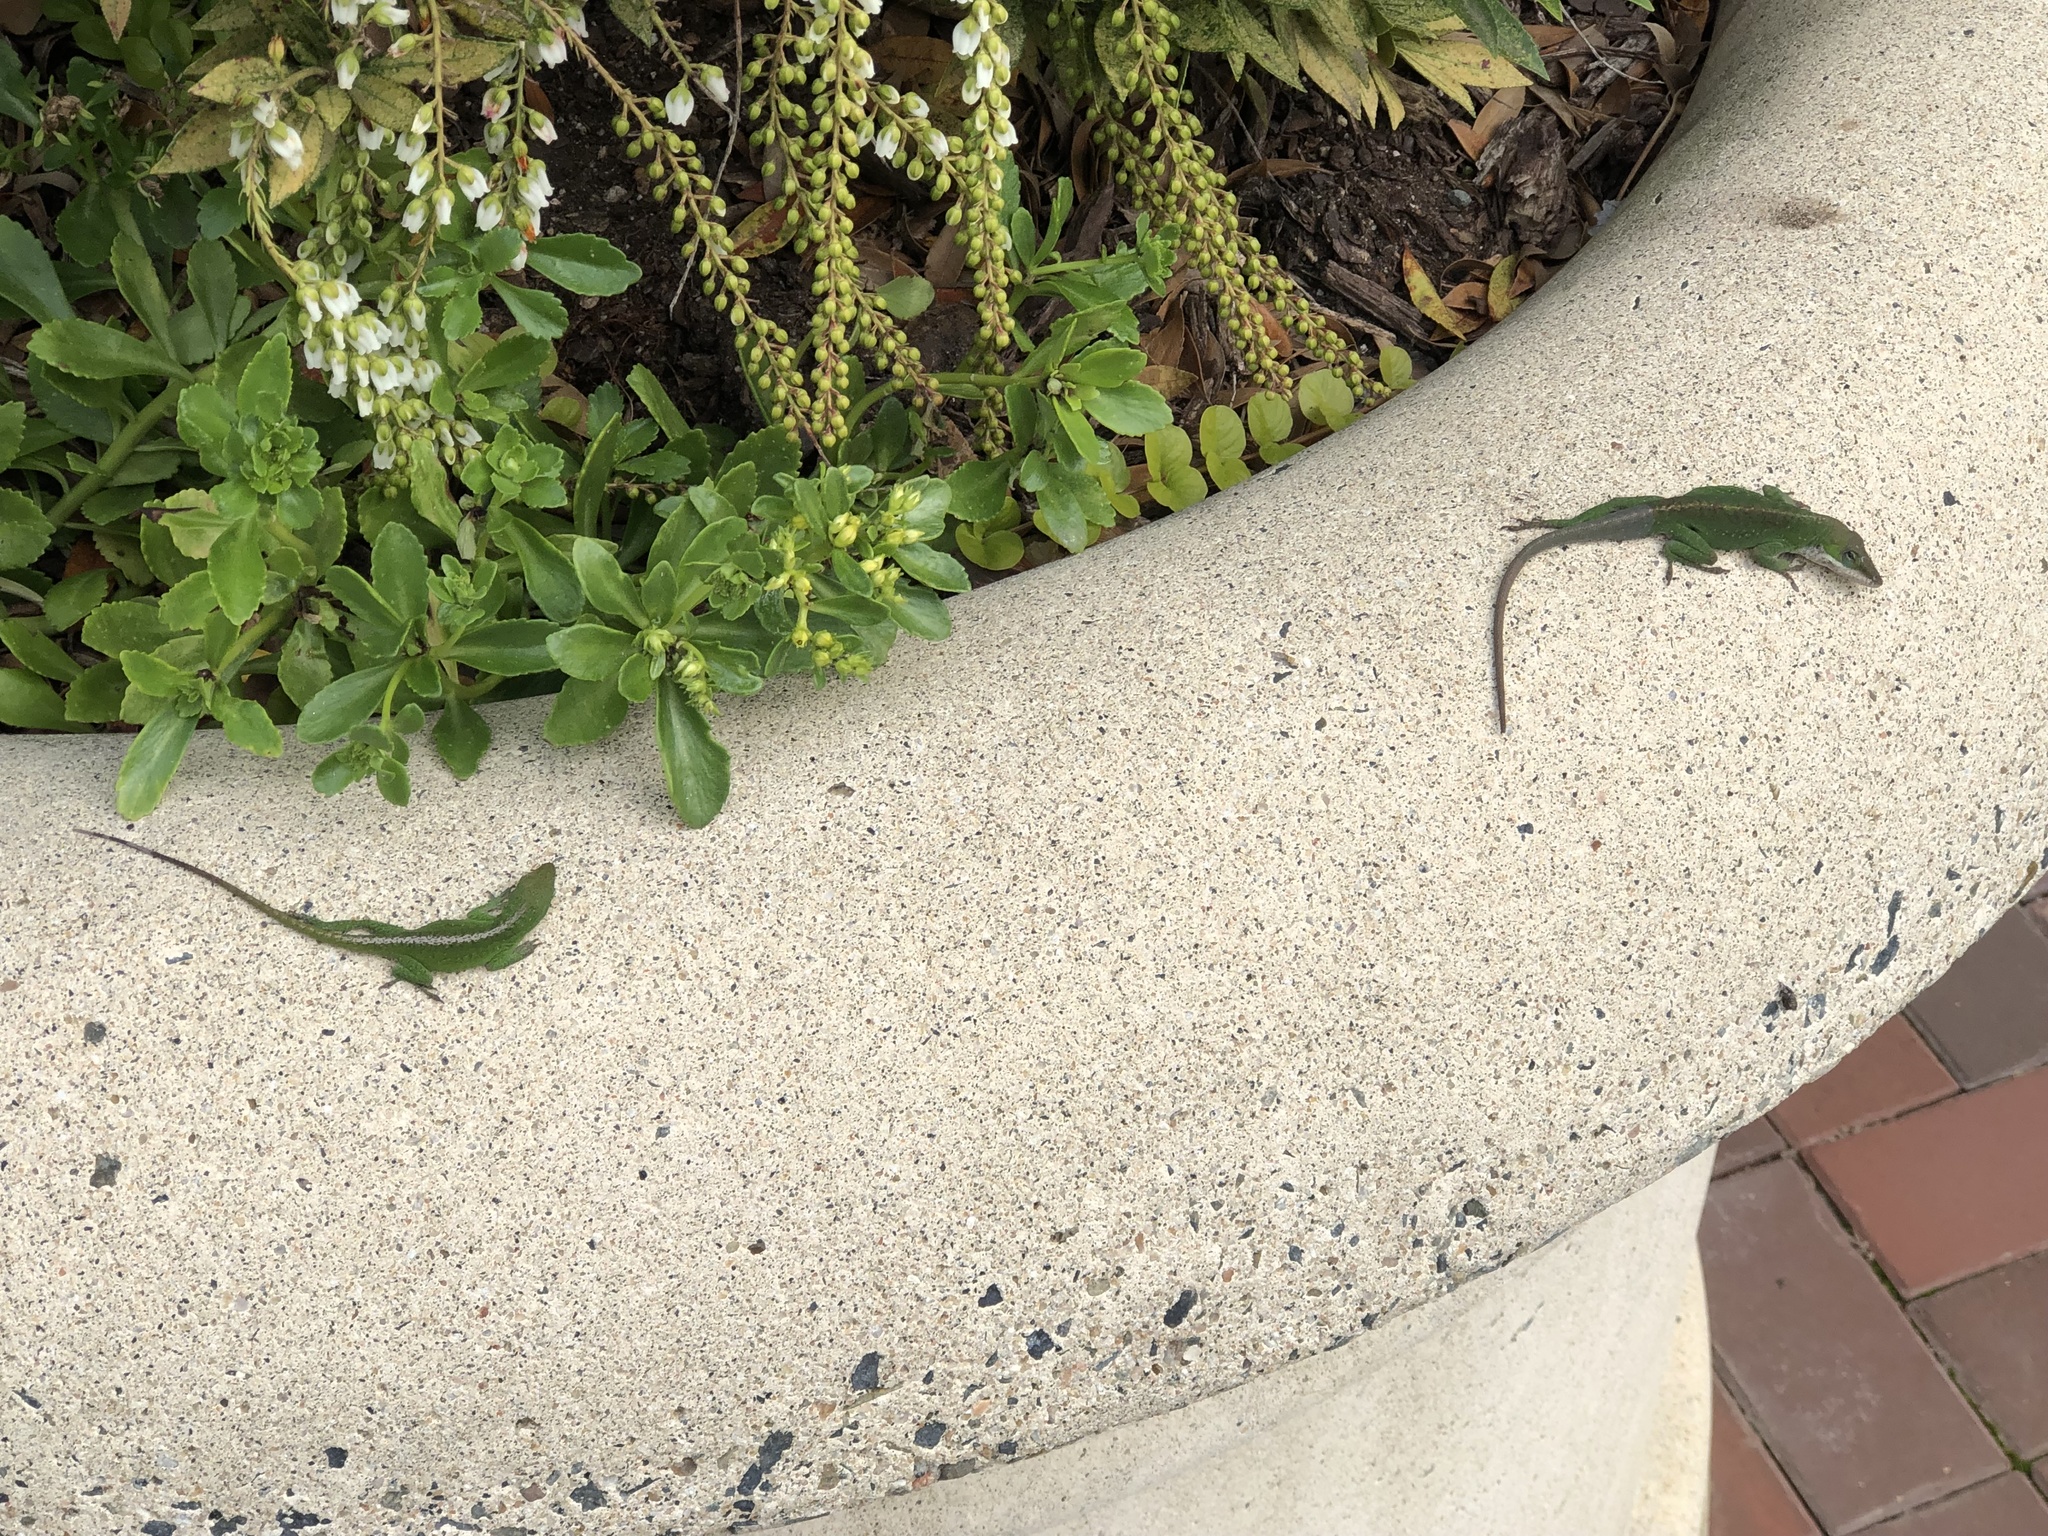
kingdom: Animalia
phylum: Chordata
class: Squamata
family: Dactyloidae
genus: Anolis
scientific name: Anolis carolinensis
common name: Green anole
